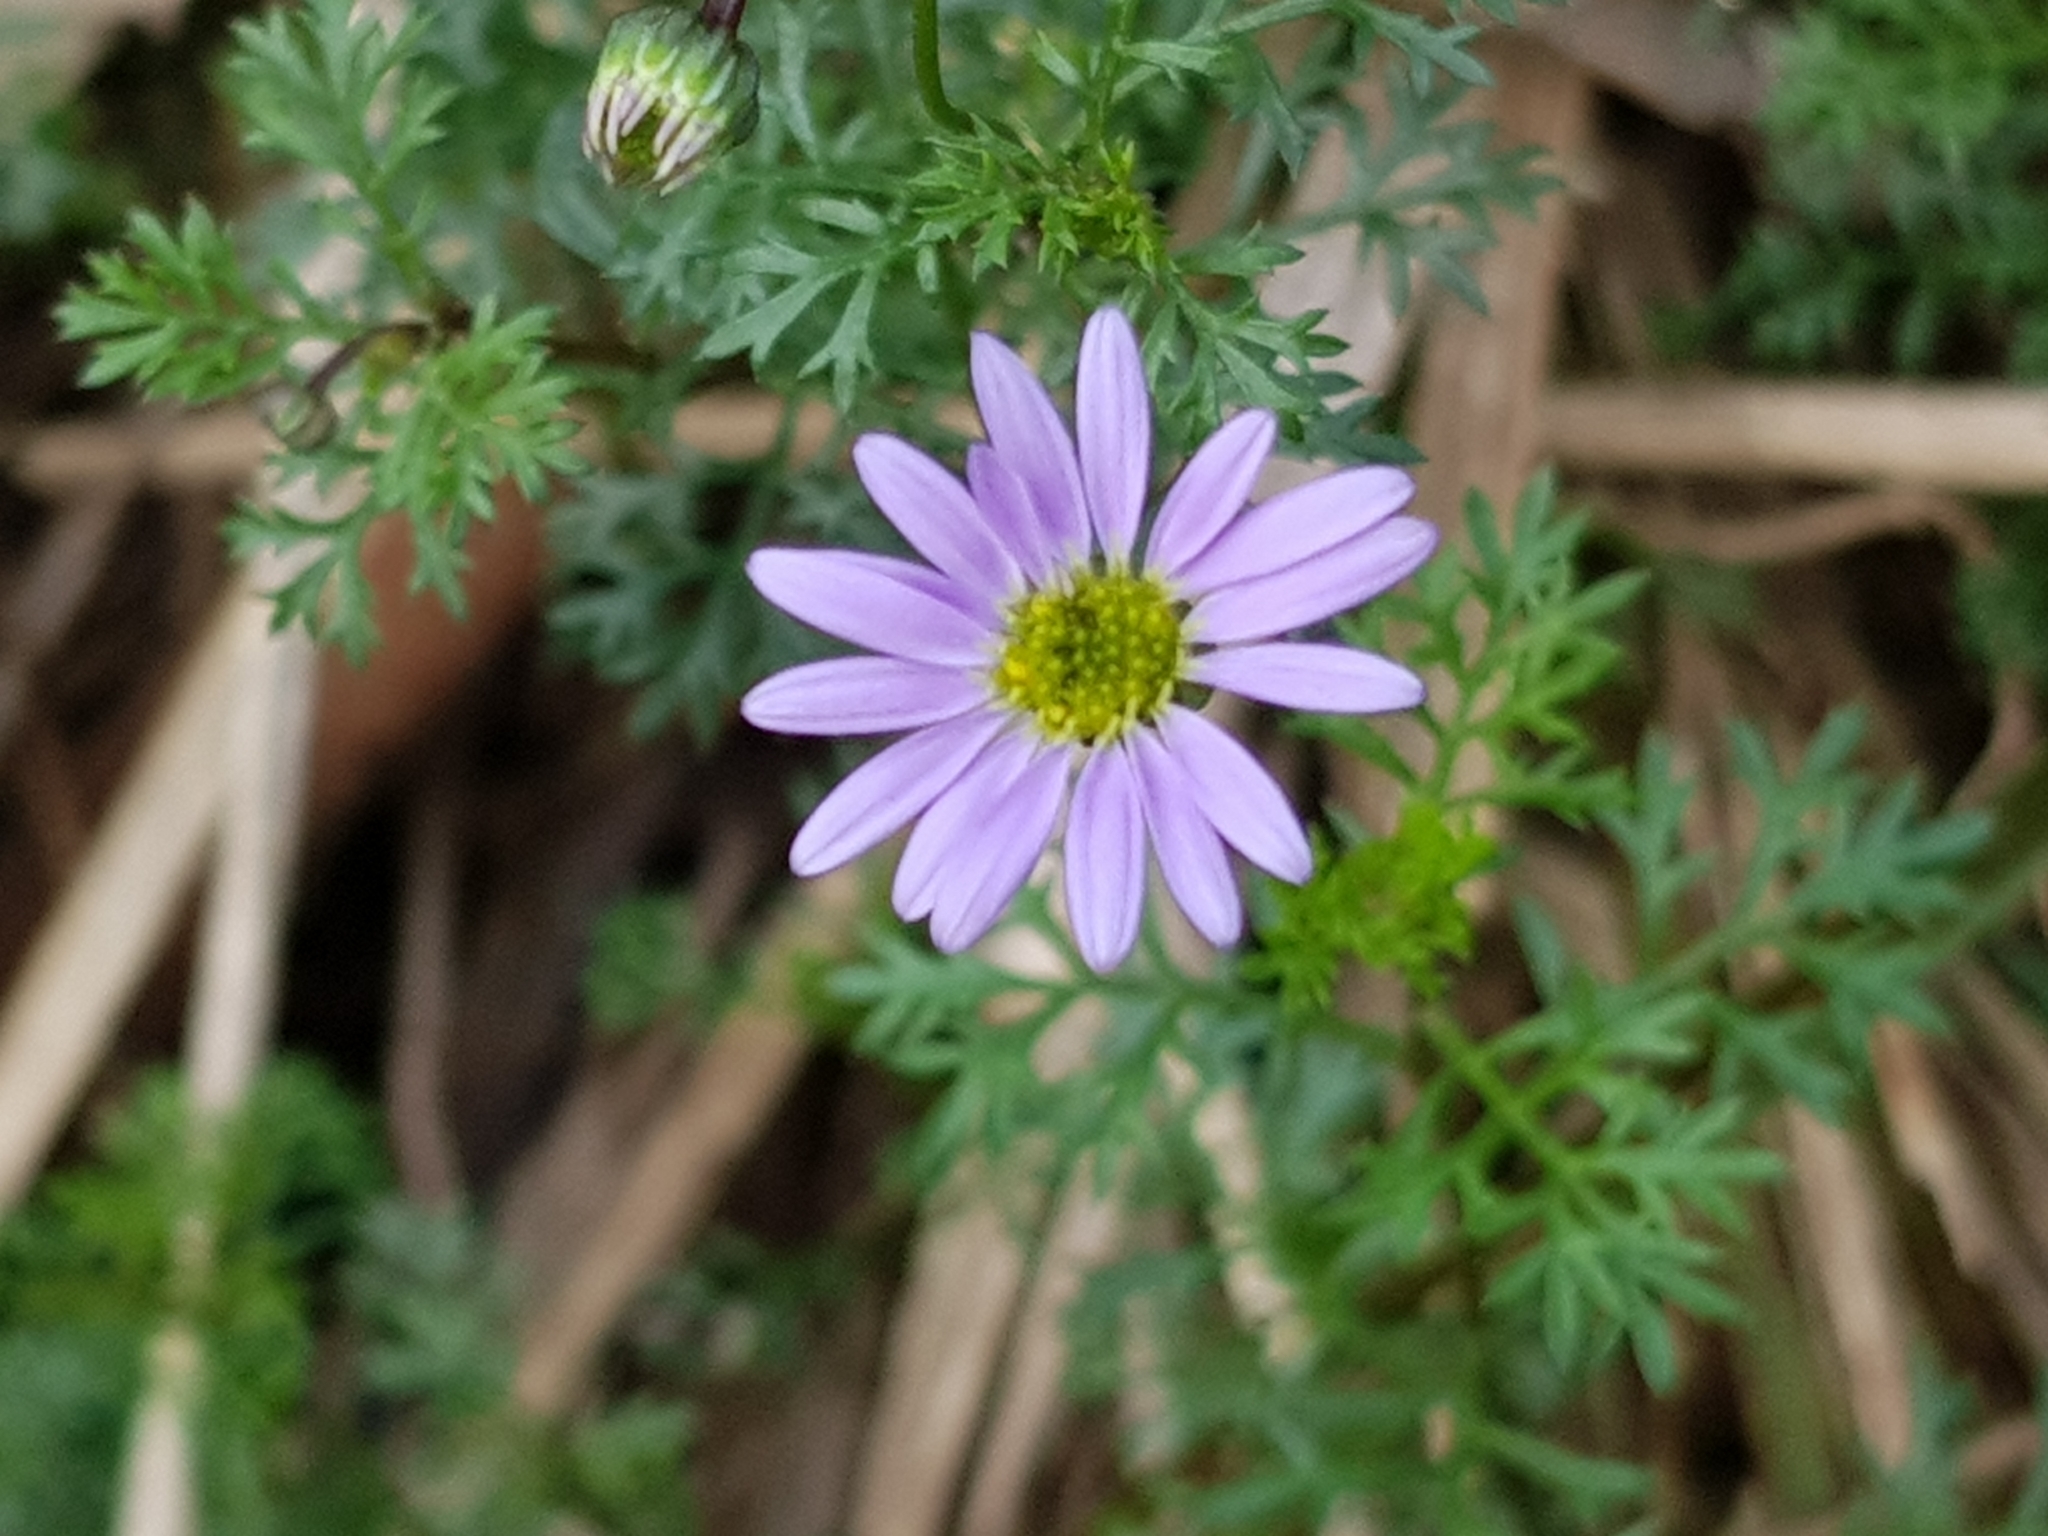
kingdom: Plantae
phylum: Tracheophyta
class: Magnoliopsida
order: Asterales
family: Asteraceae
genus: Brachyscome
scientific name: Brachyscome multifida
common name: Cut-leaf daisy
